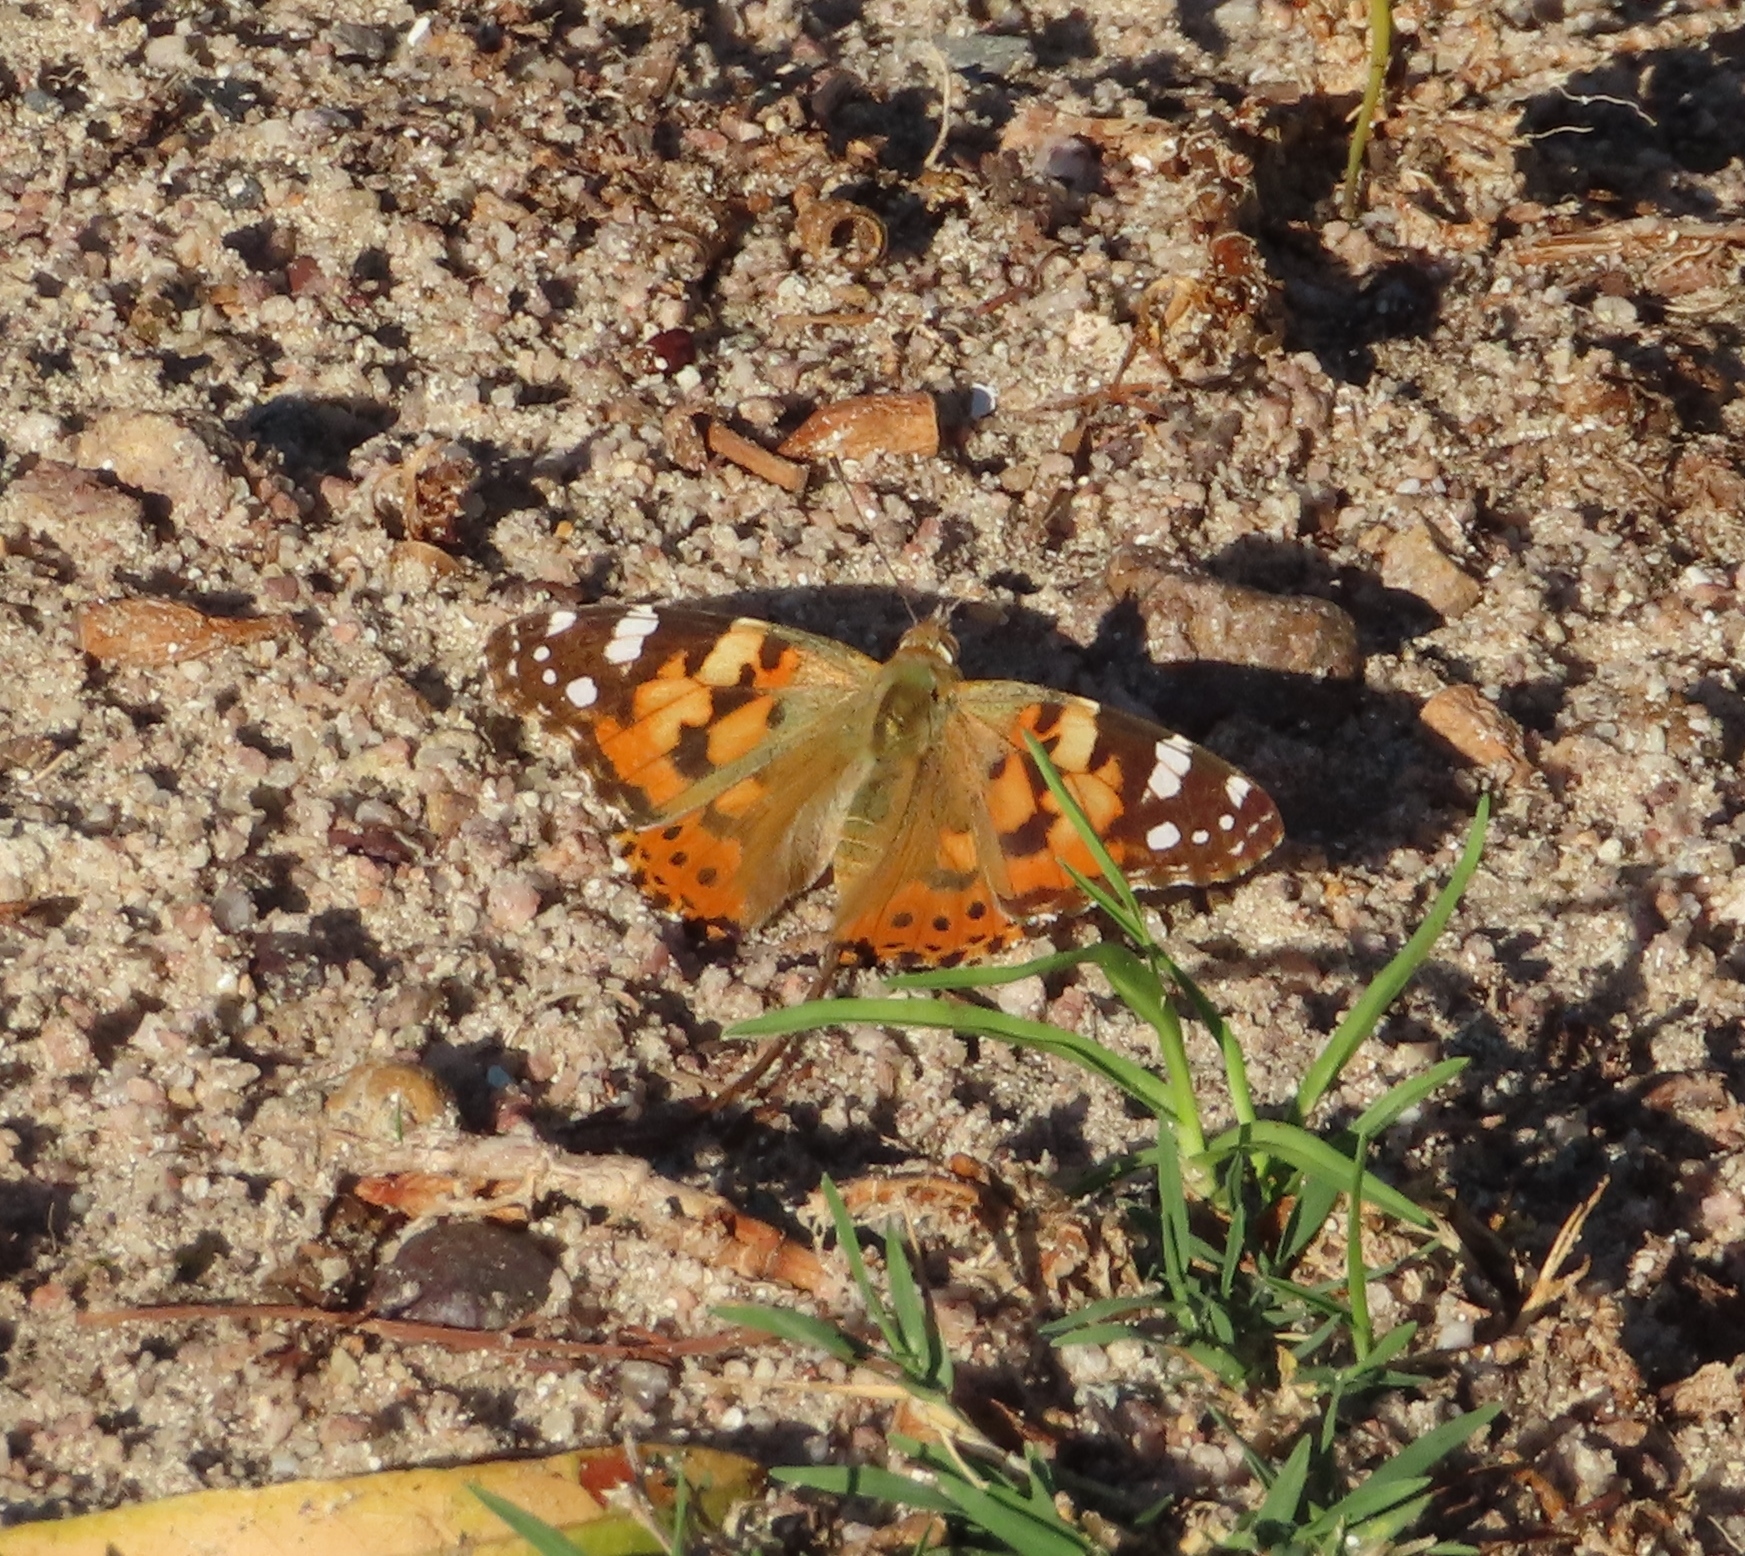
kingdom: Animalia
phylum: Arthropoda
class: Insecta
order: Lepidoptera
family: Nymphalidae
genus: Vanessa
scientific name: Vanessa cardui
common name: Painted lady
